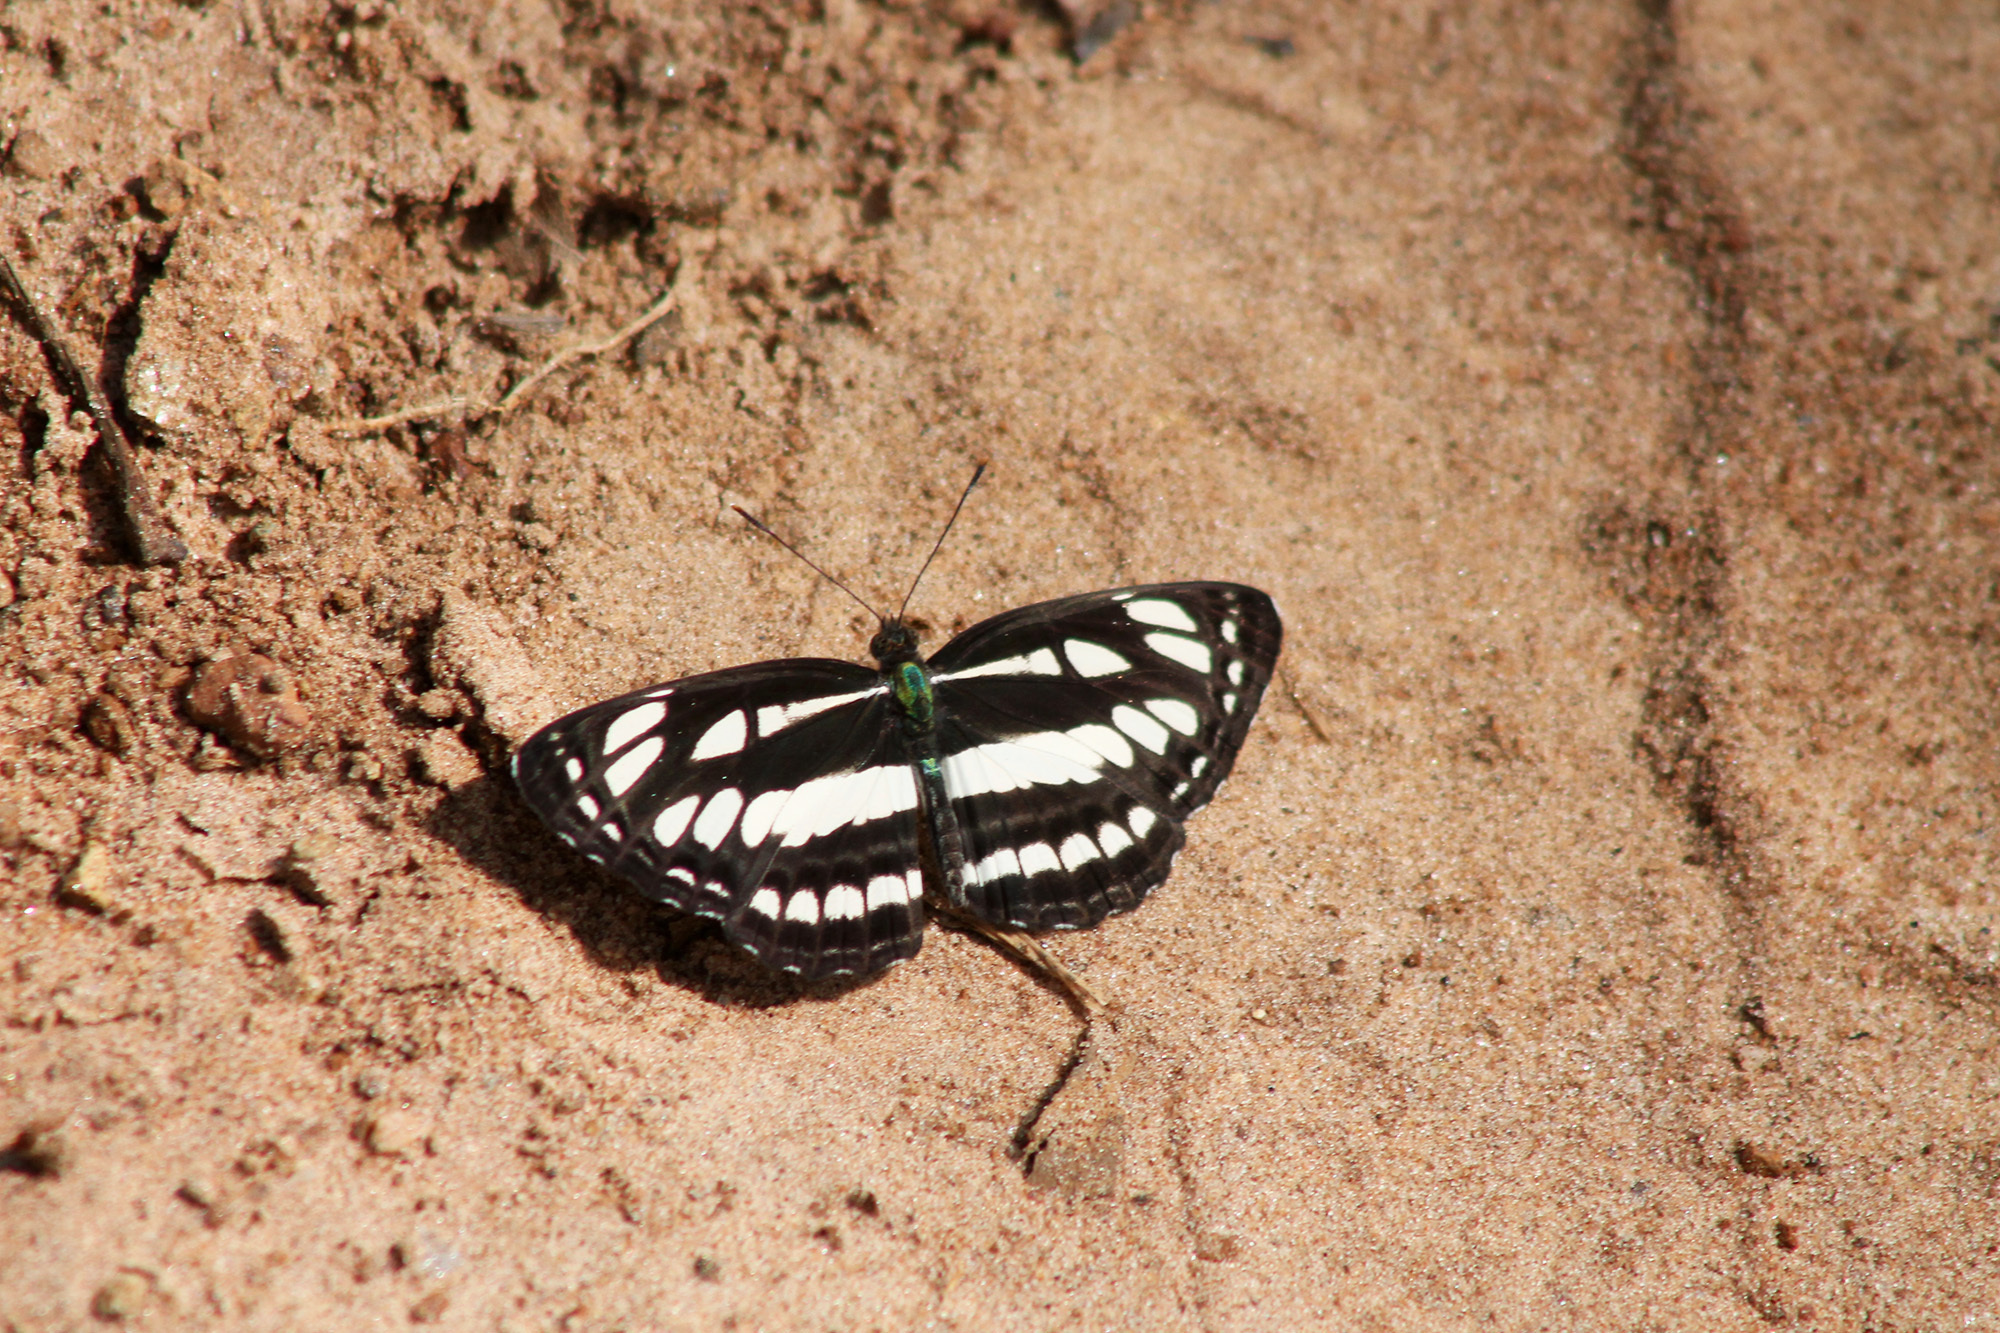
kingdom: Animalia
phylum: Arthropoda
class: Insecta
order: Lepidoptera
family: Nymphalidae
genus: Neptis
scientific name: Neptis hylas
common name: Common sailer
